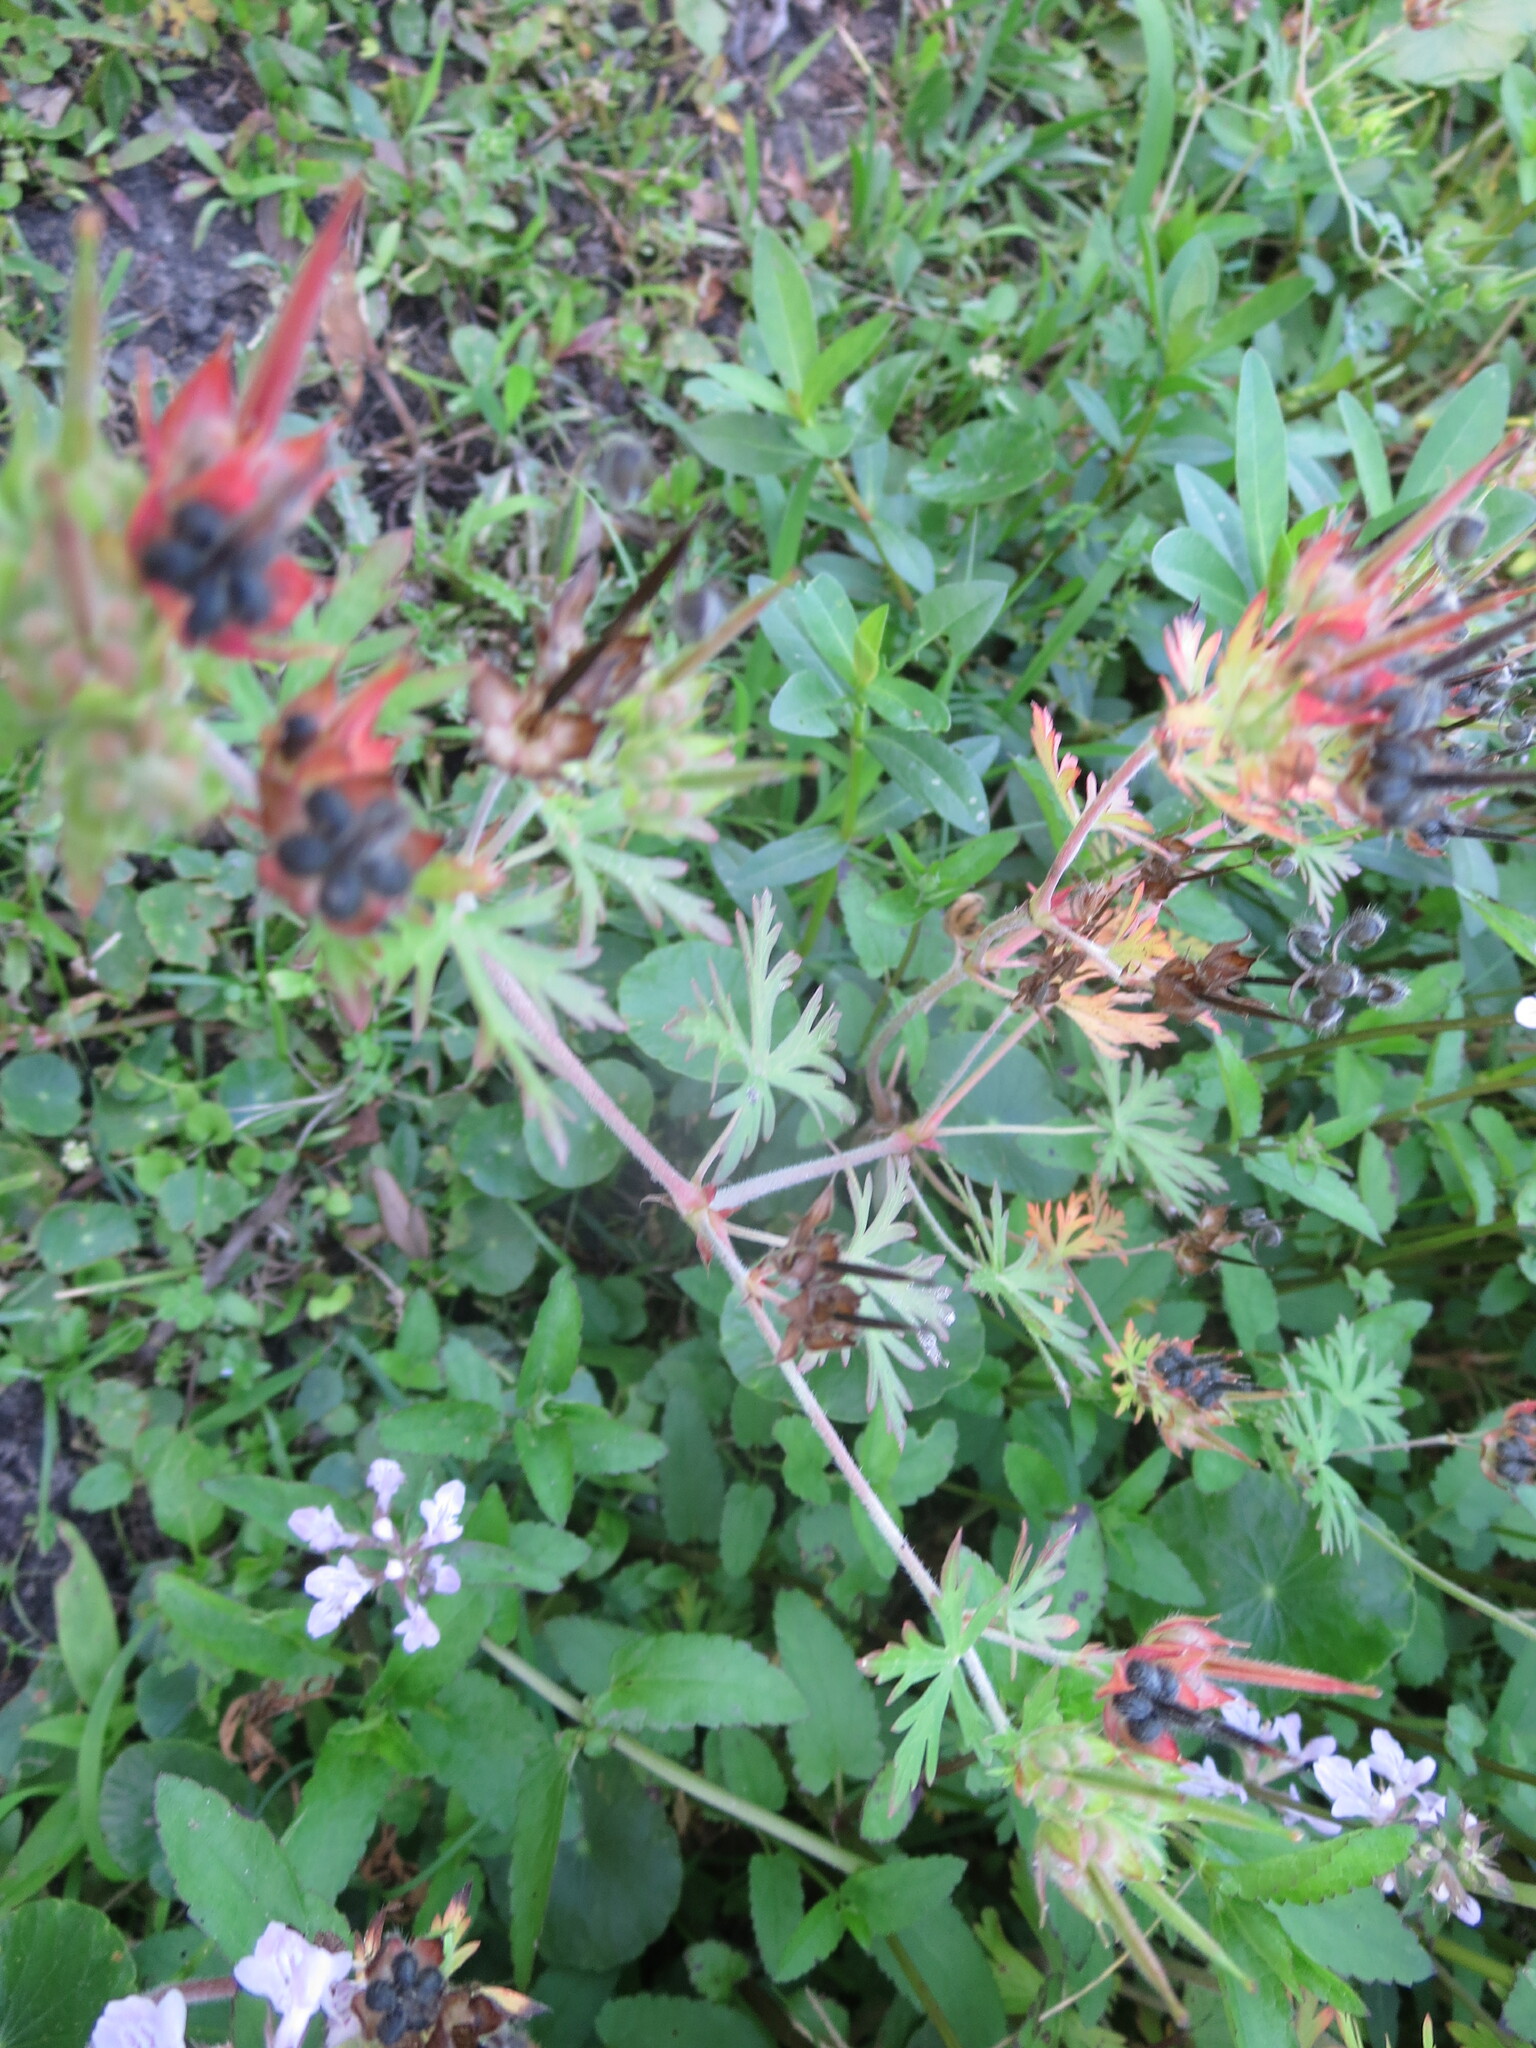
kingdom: Plantae
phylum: Tracheophyta
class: Magnoliopsida
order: Geraniales
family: Geraniaceae
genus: Geranium
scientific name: Geranium carolinianum
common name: Carolina crane's-bill
